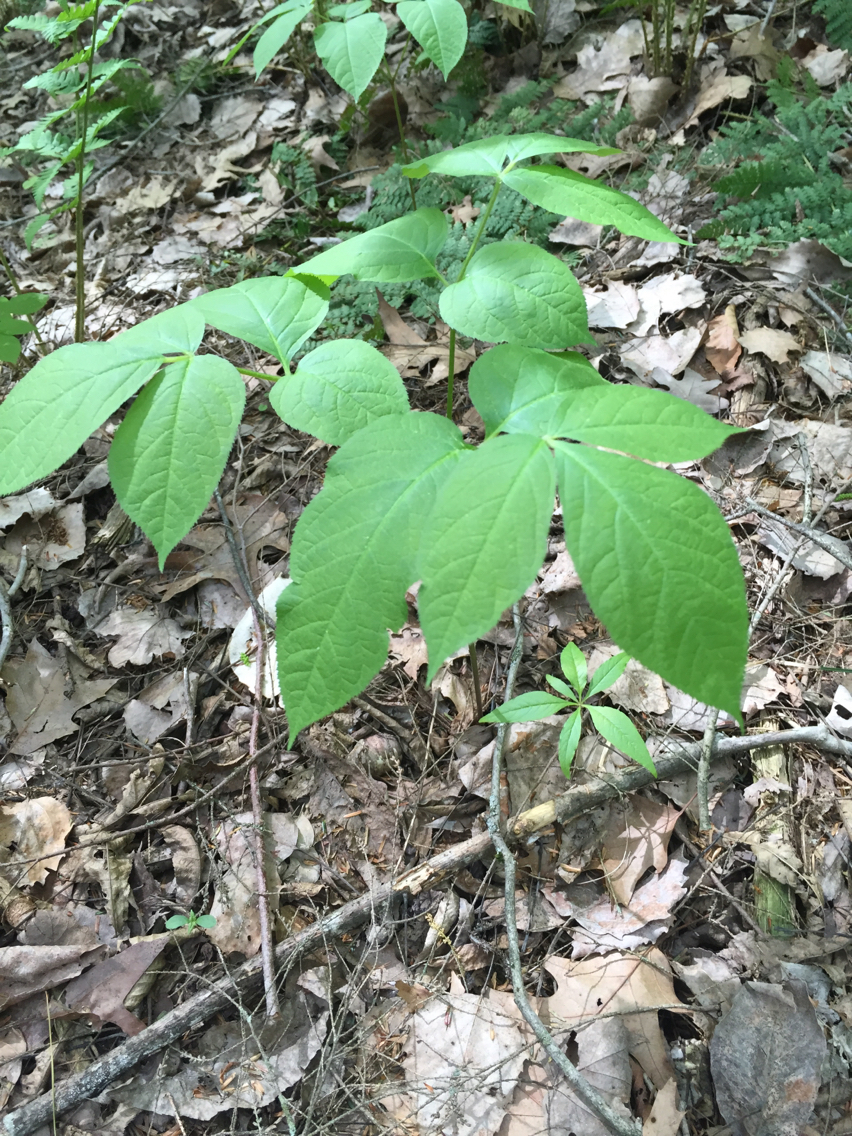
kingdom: Plantae
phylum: Tracheophyta
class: Magnoliopsida
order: Apiales
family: Araliaceae
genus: Aralia
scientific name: Aralia nudicaulis
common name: Wild sarsaparilla
